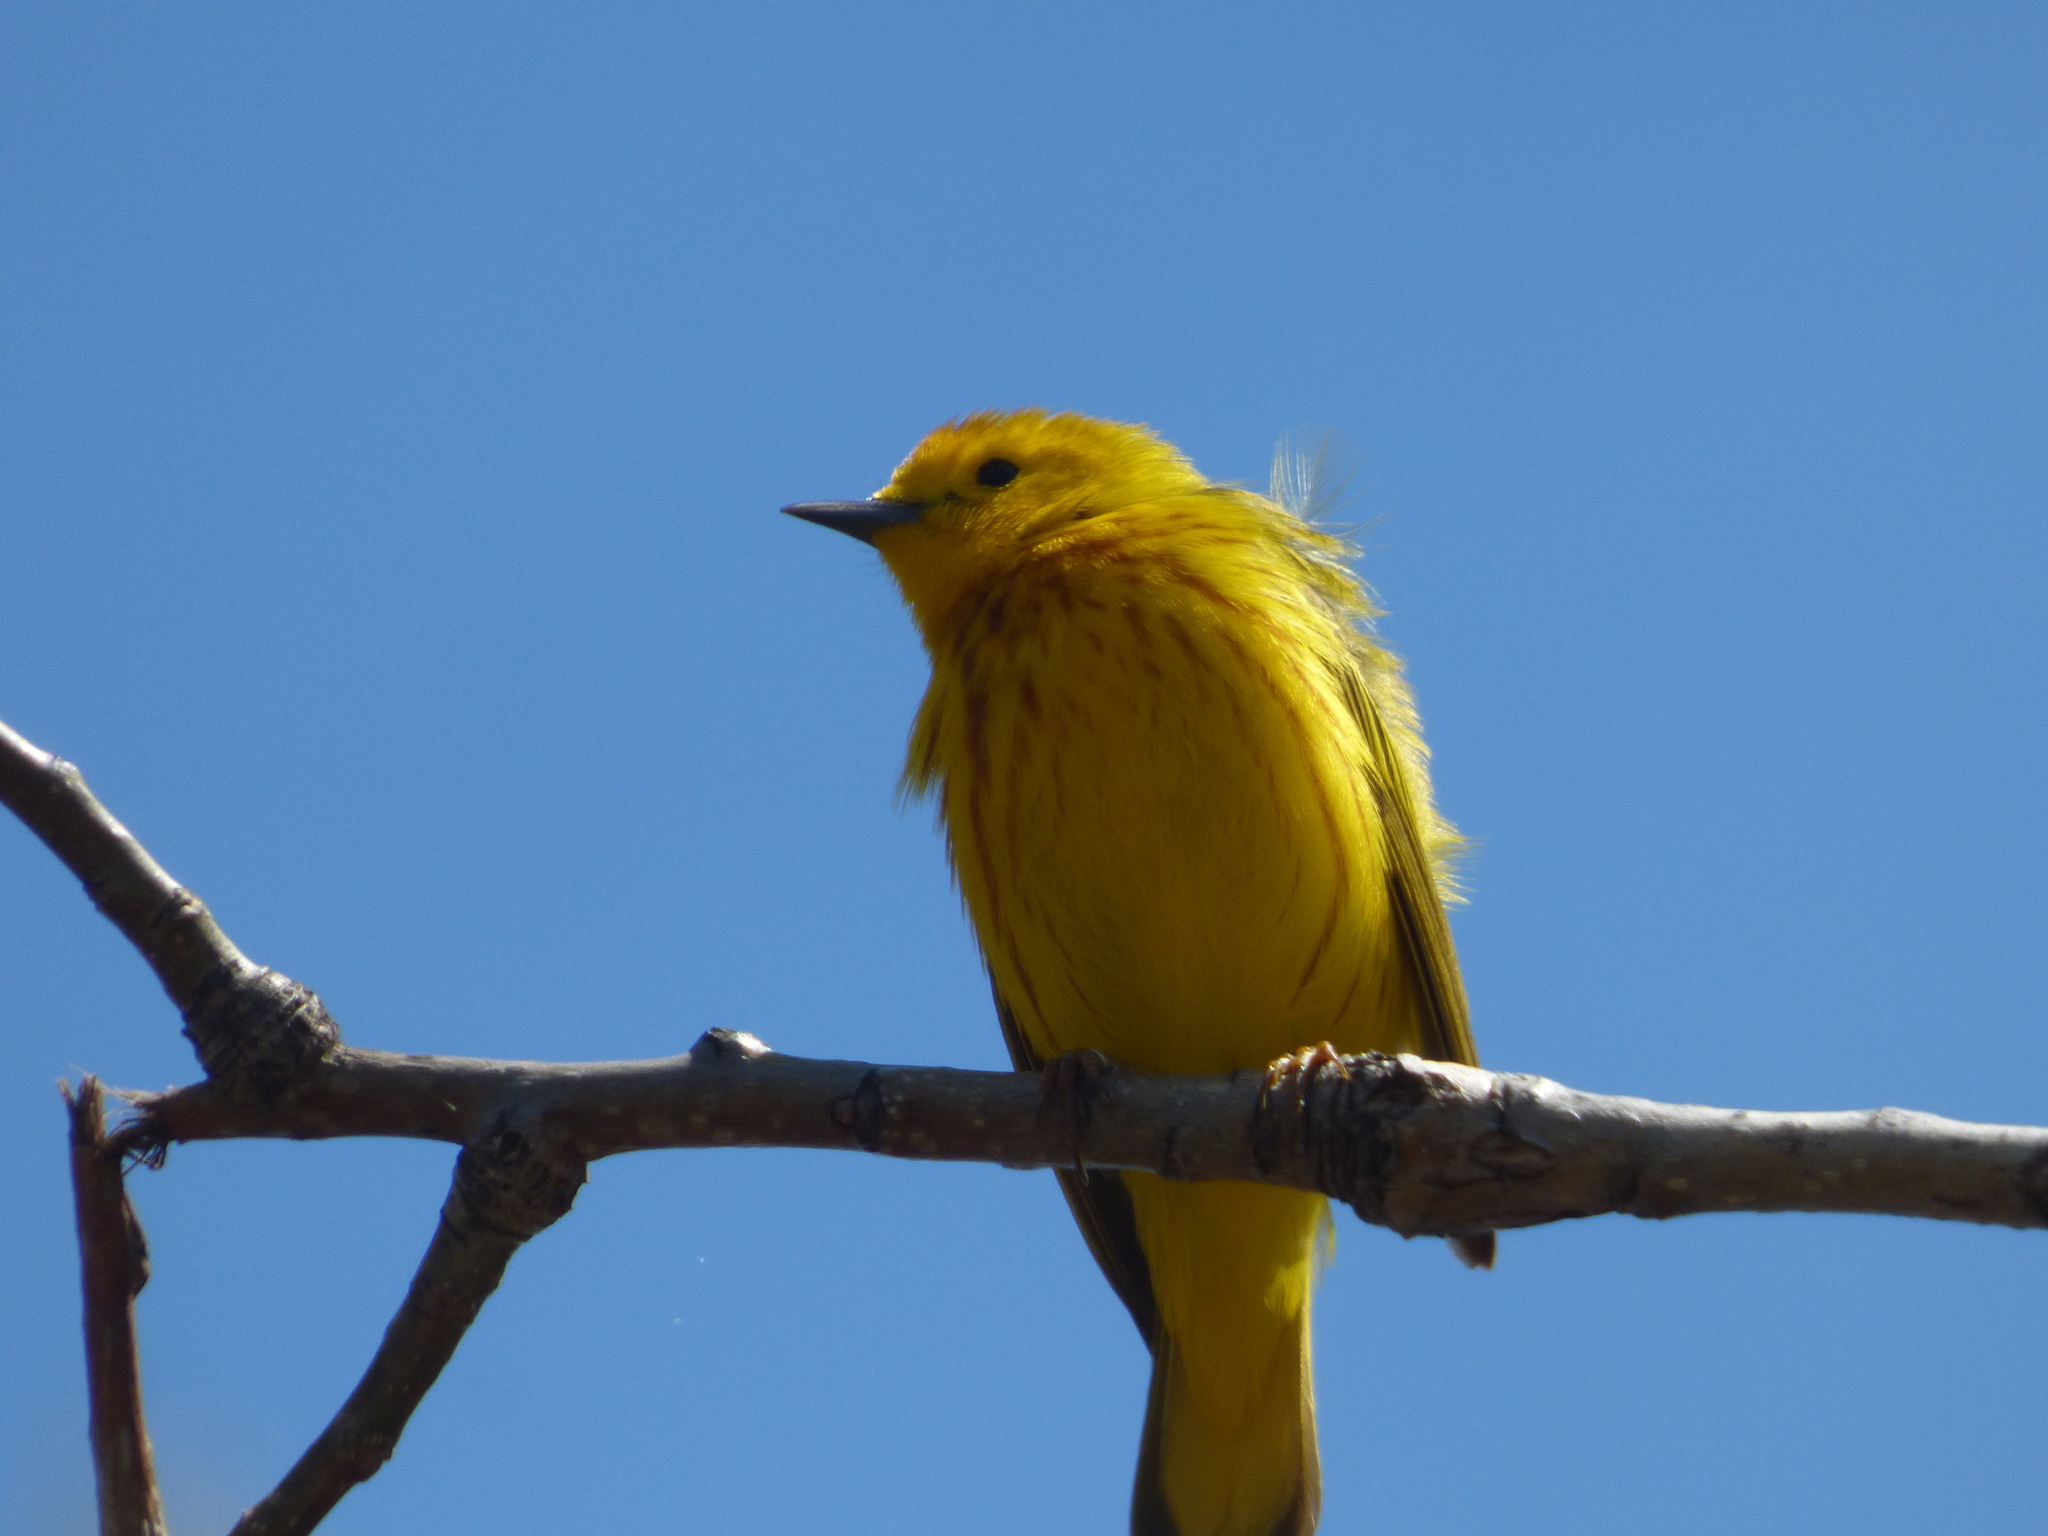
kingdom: Animalia
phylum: Chordata
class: Aves
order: Passeriformes
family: Parulidae
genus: Setophaga
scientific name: Setophaga petechia
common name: Yellow warbler
